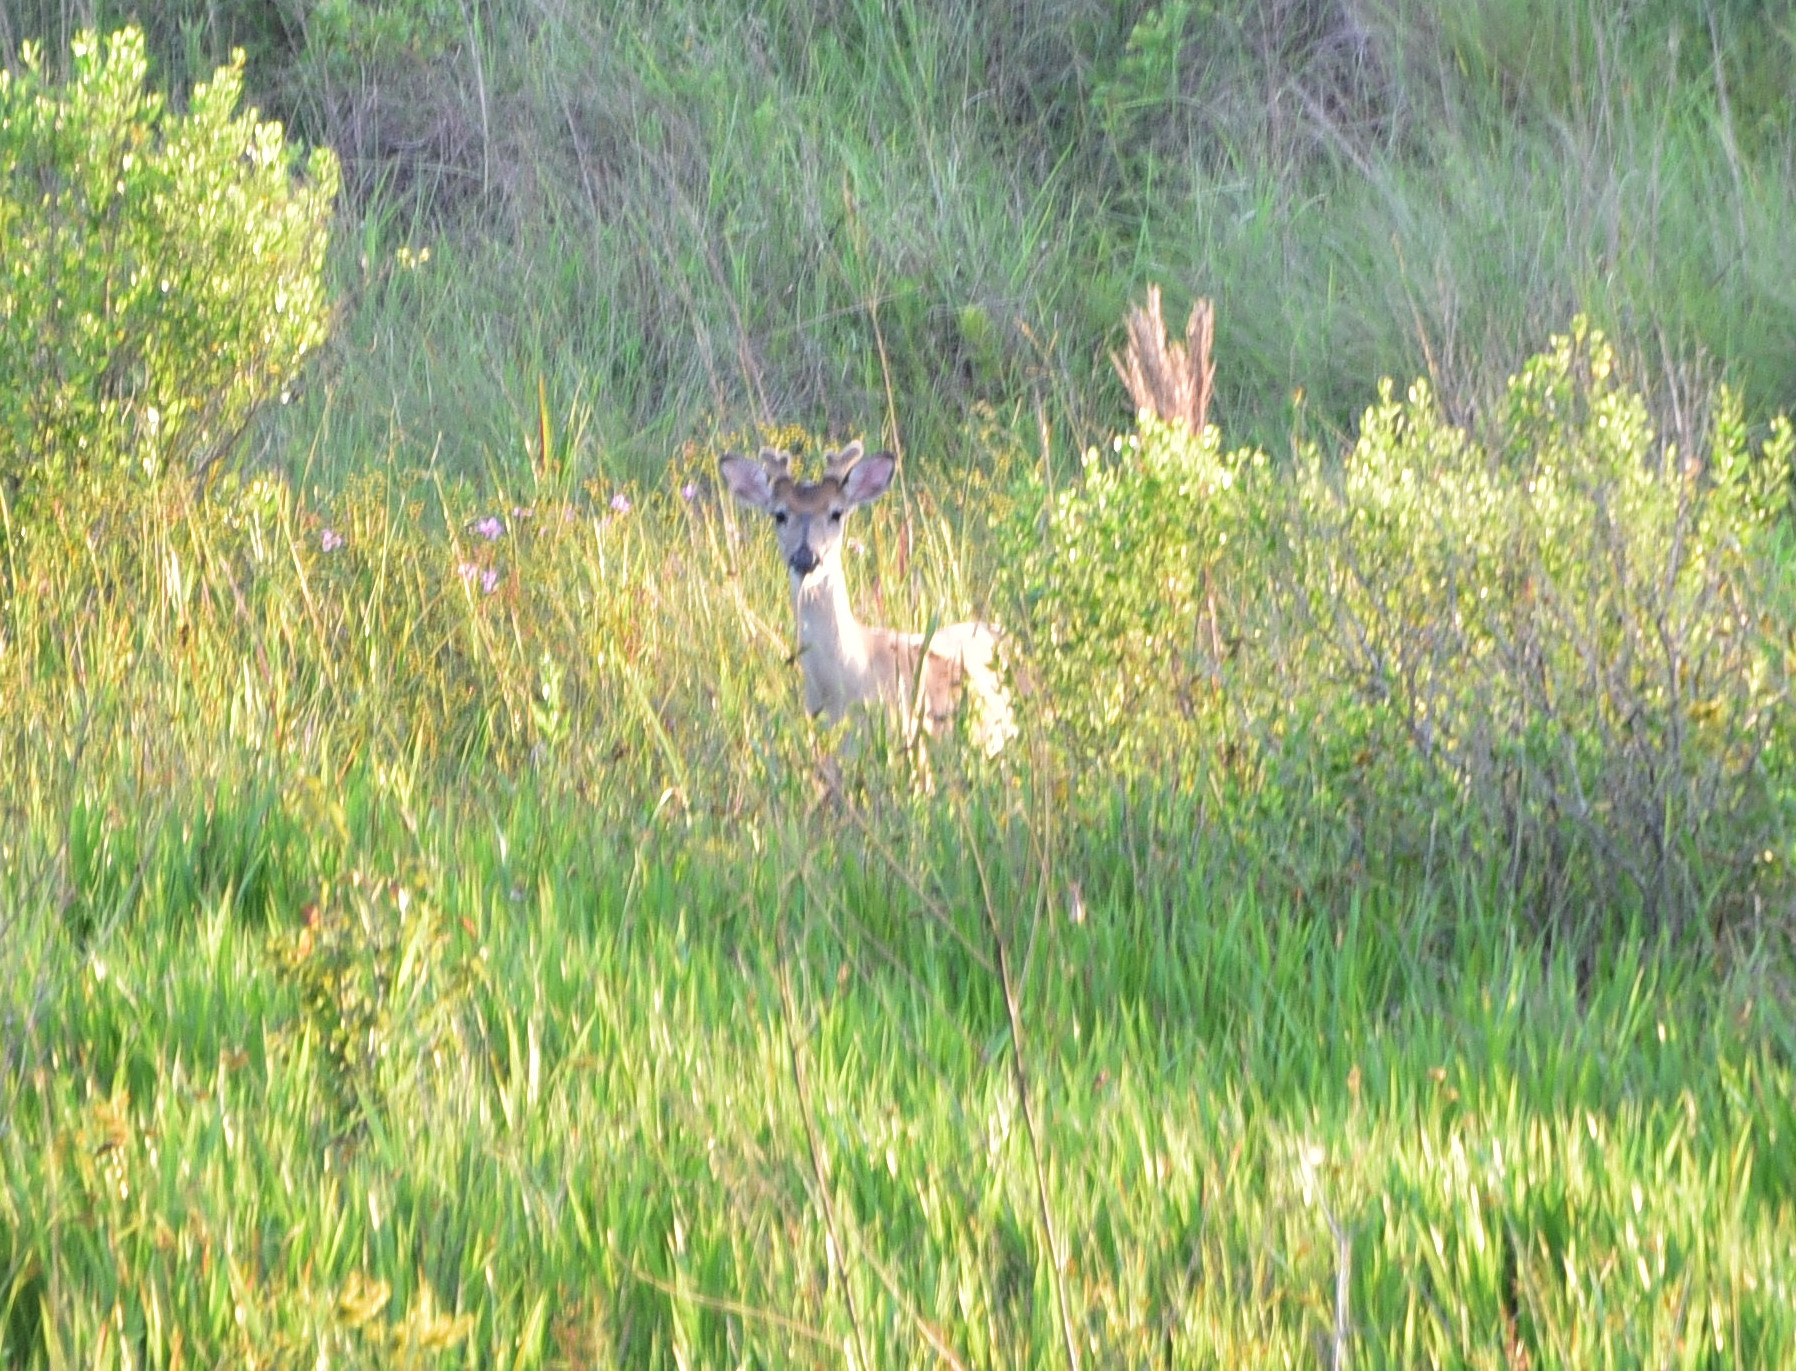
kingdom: Animalia
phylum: Chordata
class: Mammalia
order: Artiodactyla
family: Cervidae
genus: Odocoileus
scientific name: Odocoileus virginianus
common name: White-tailed deer
